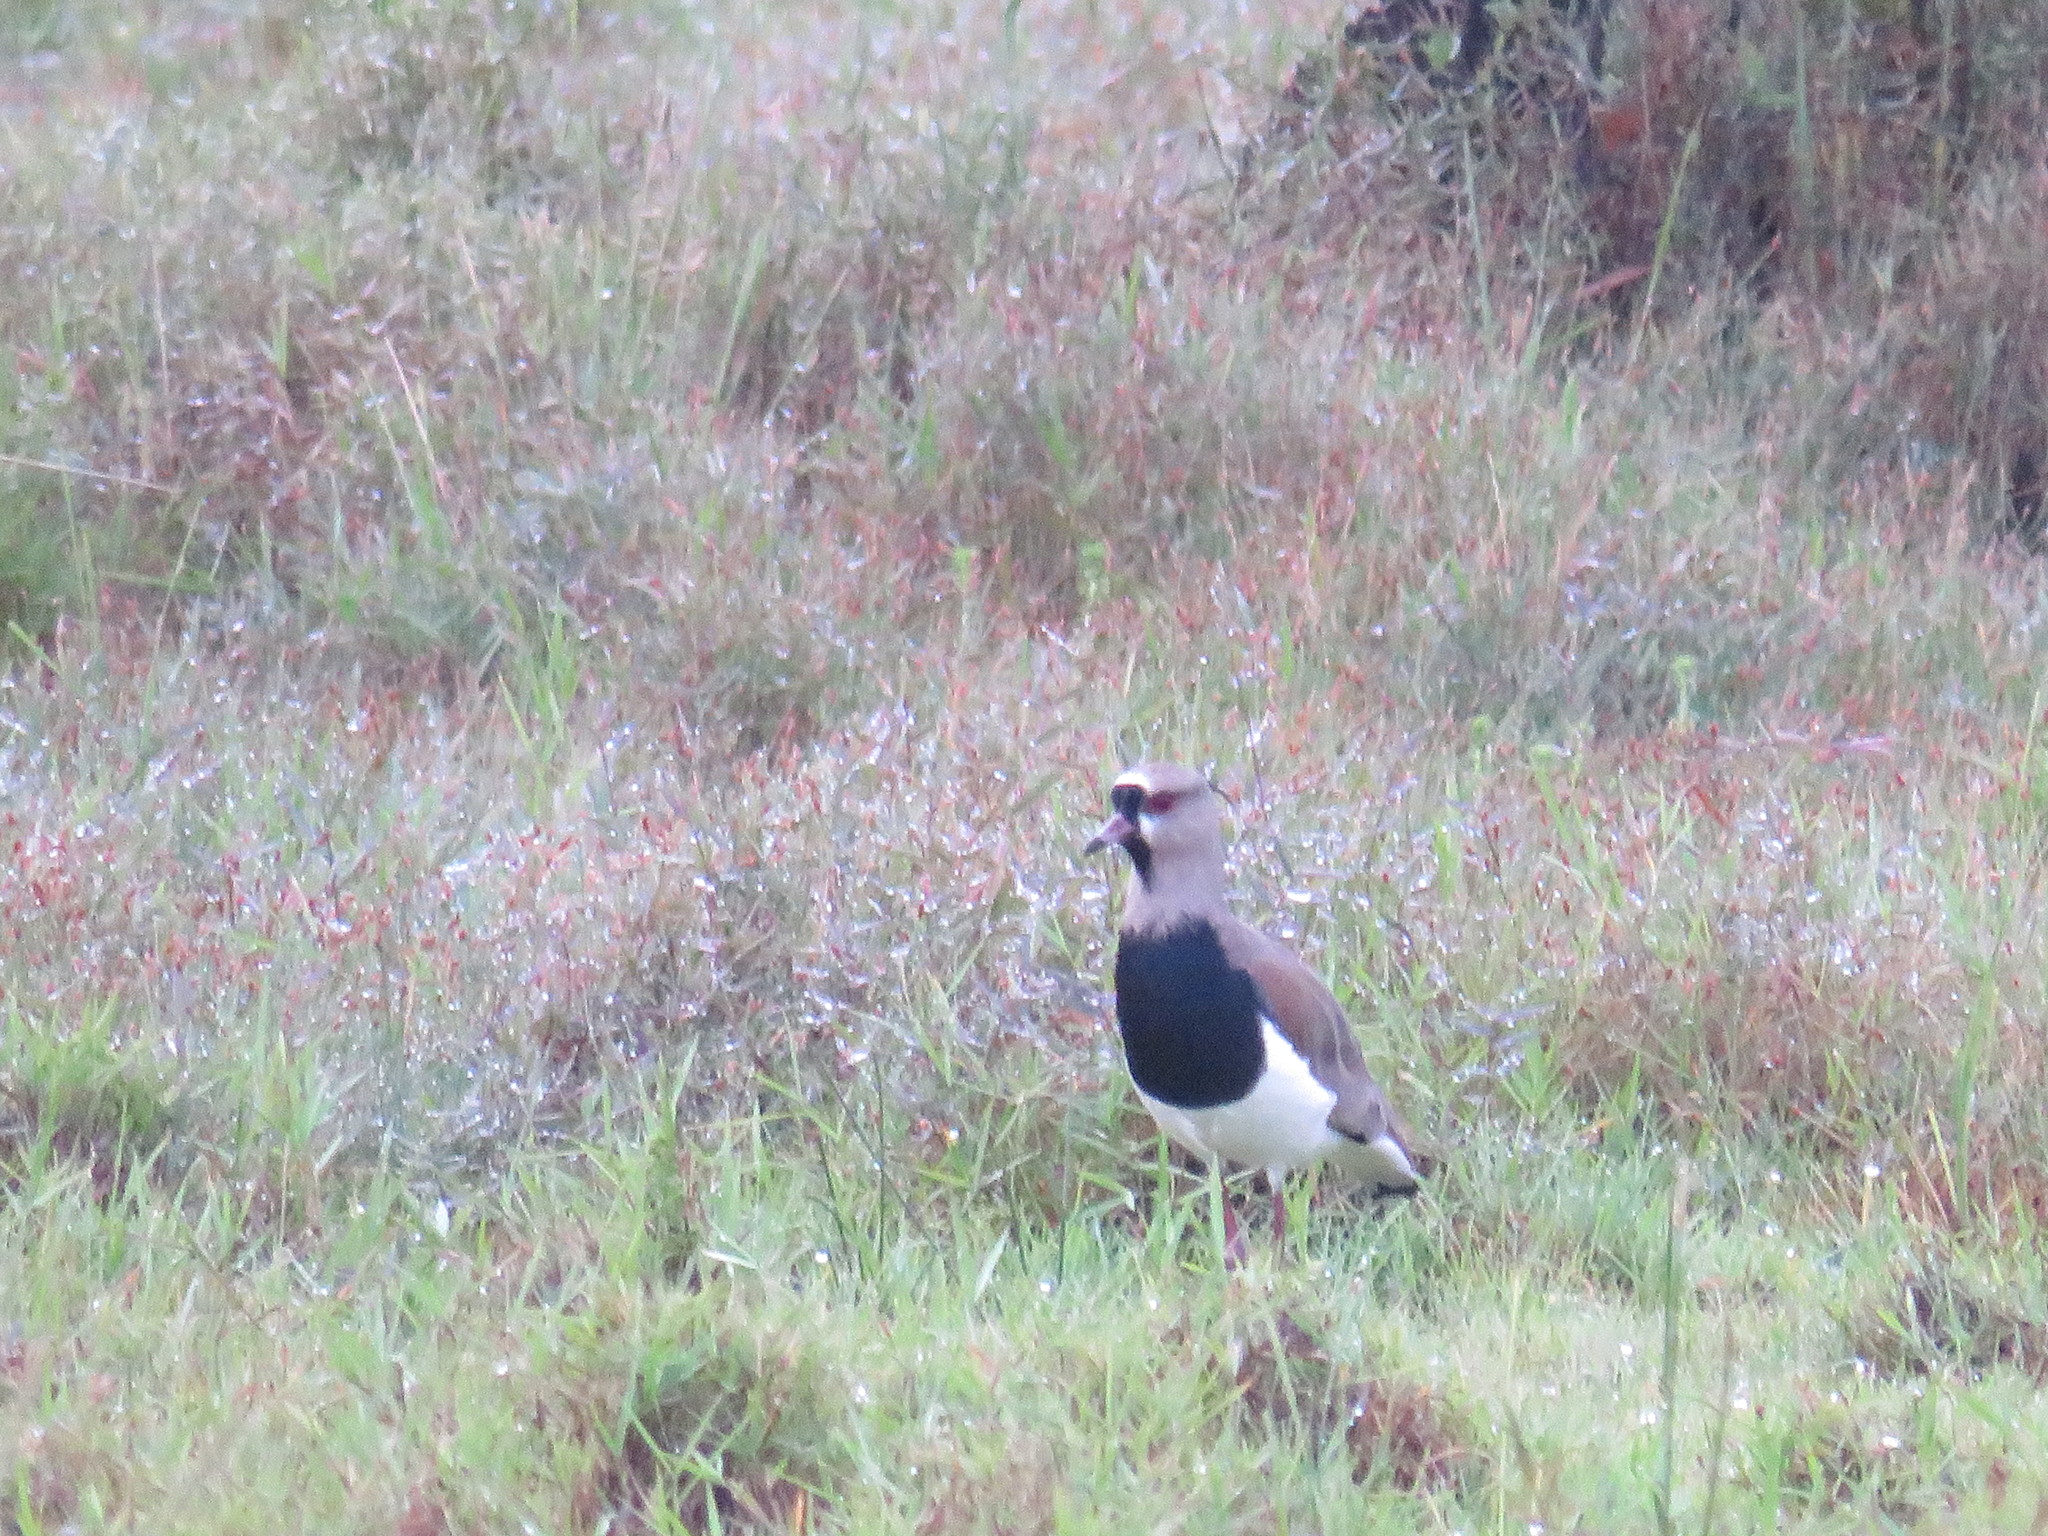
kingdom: Animalia
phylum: Chordata
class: Aves
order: Charadriiformes
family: Charadriidae
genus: Vanellus
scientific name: Vanellus chilensis
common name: Southern lapwing
